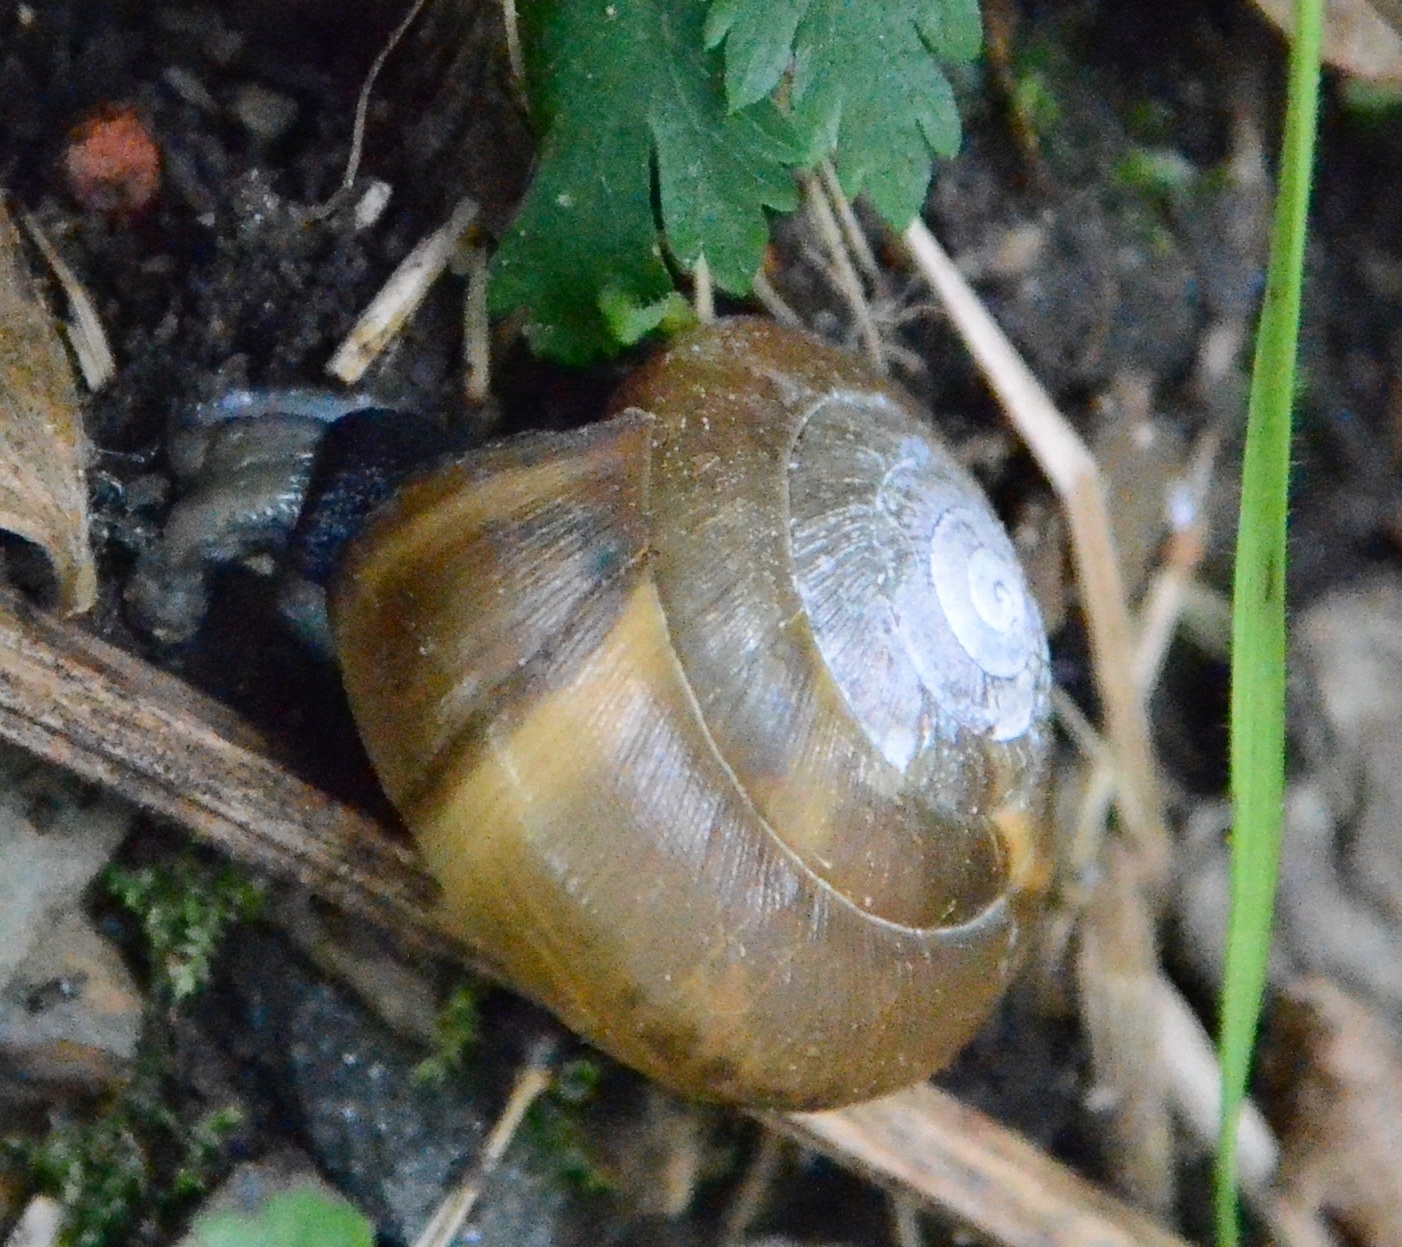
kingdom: Animalia
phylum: Mollusca
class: Gastropoda
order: Stylommatophora
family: Zonitidae
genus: Aegopis
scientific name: Aegopis verticillus
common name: Giant glass snail
